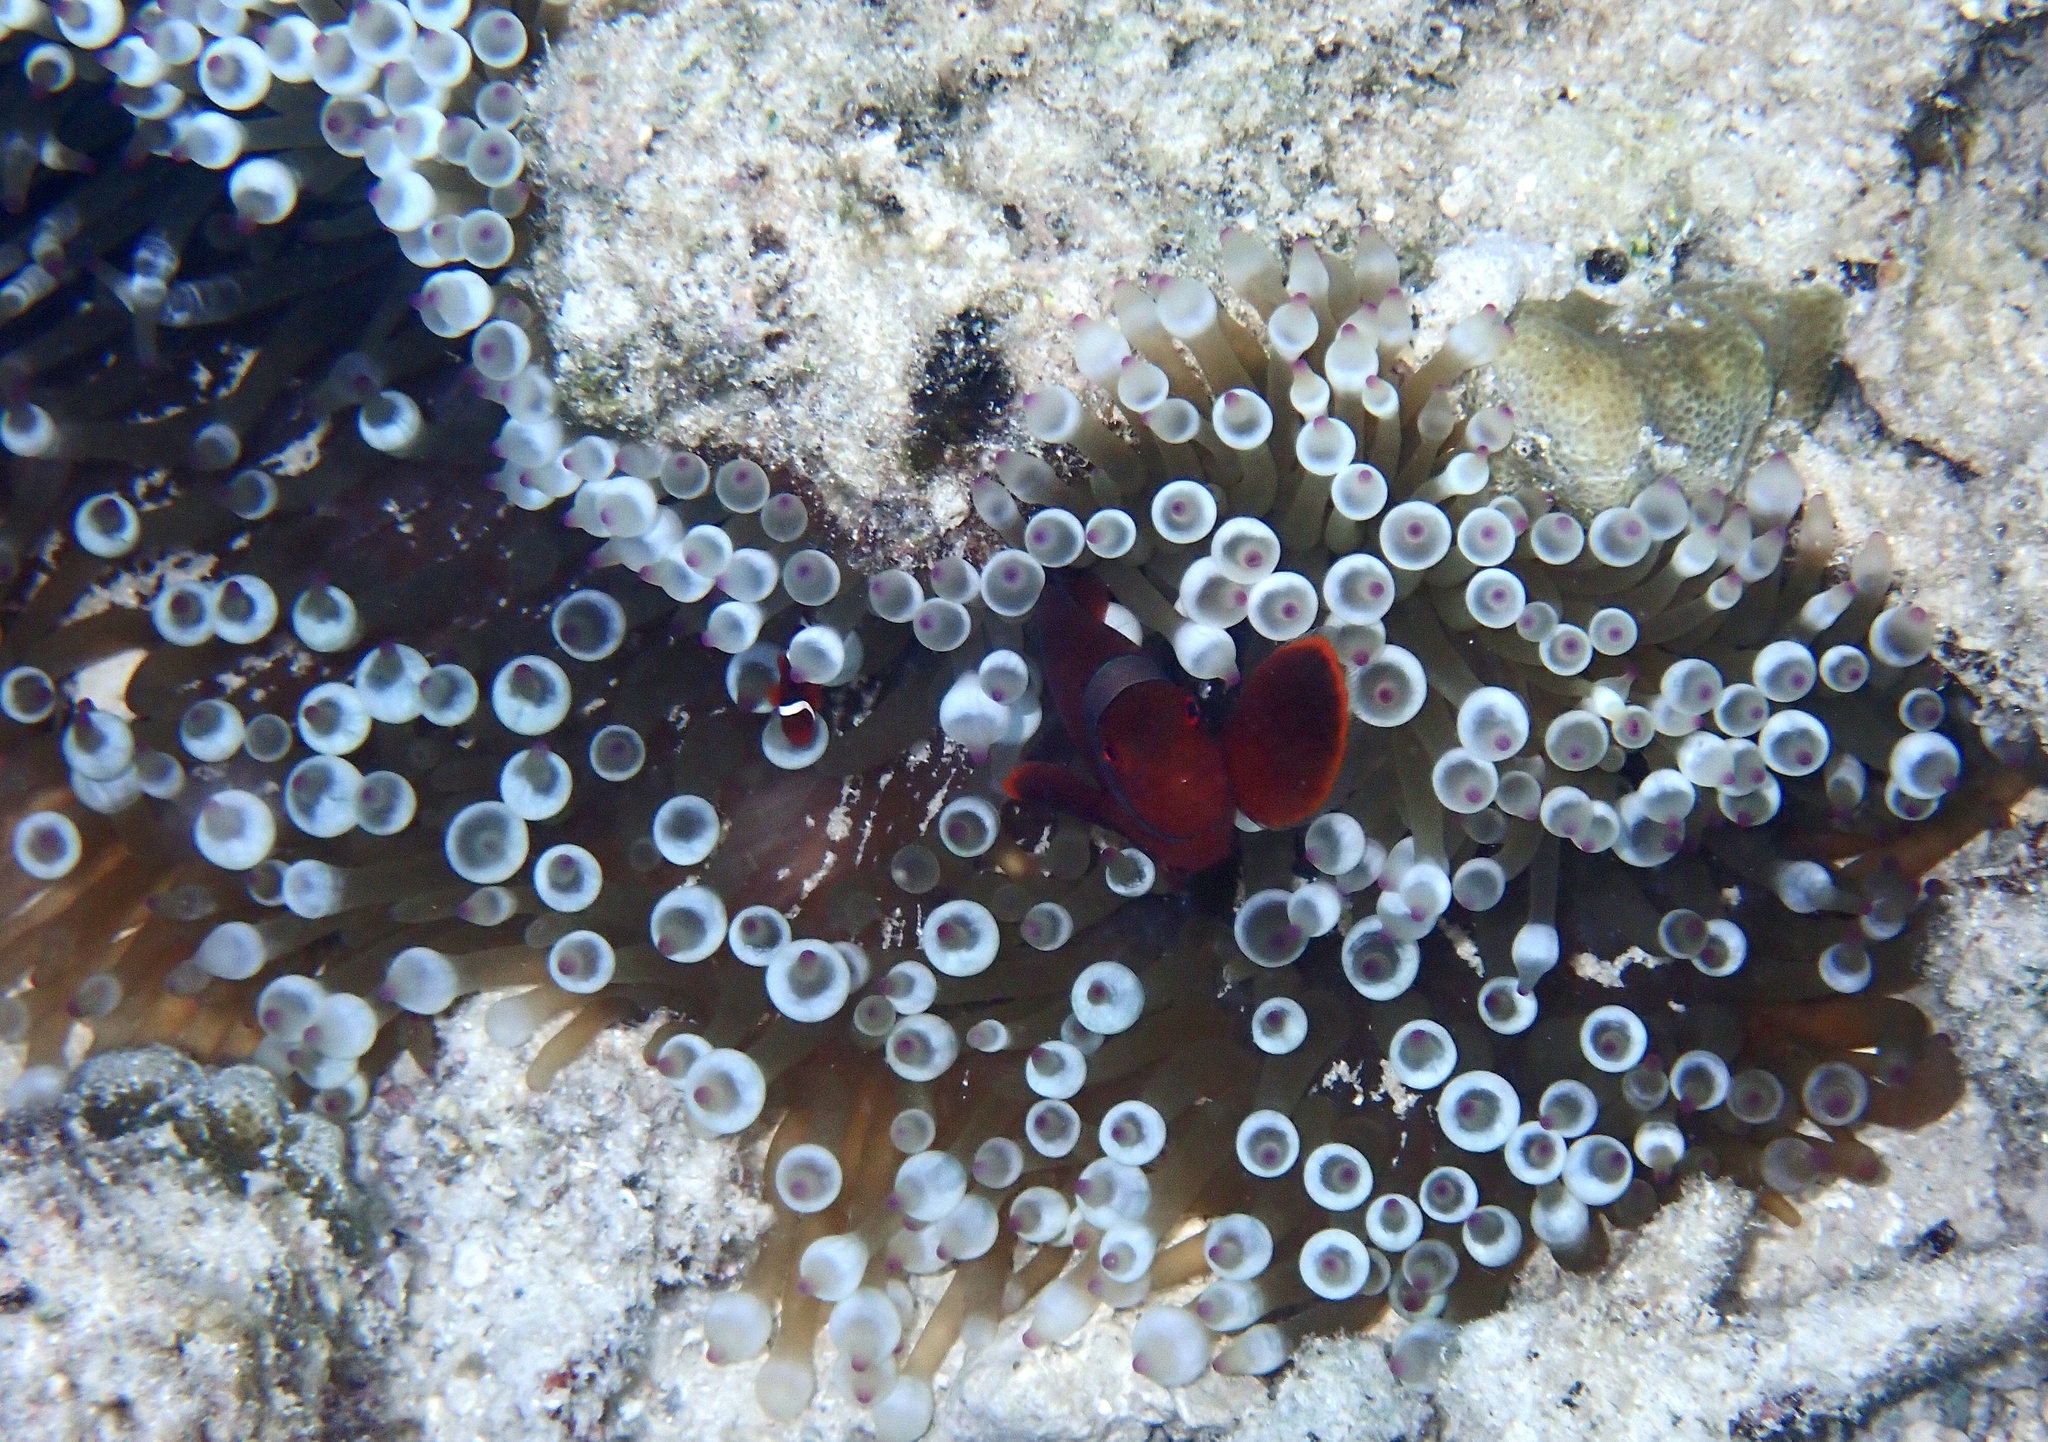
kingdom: Animalia
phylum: Cnidaria
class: Anthozoa
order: Actiniaria
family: Actiniidae
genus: Entacmaea
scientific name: Entacmaea quadricolor
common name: Bulb tentacle sea anemone
